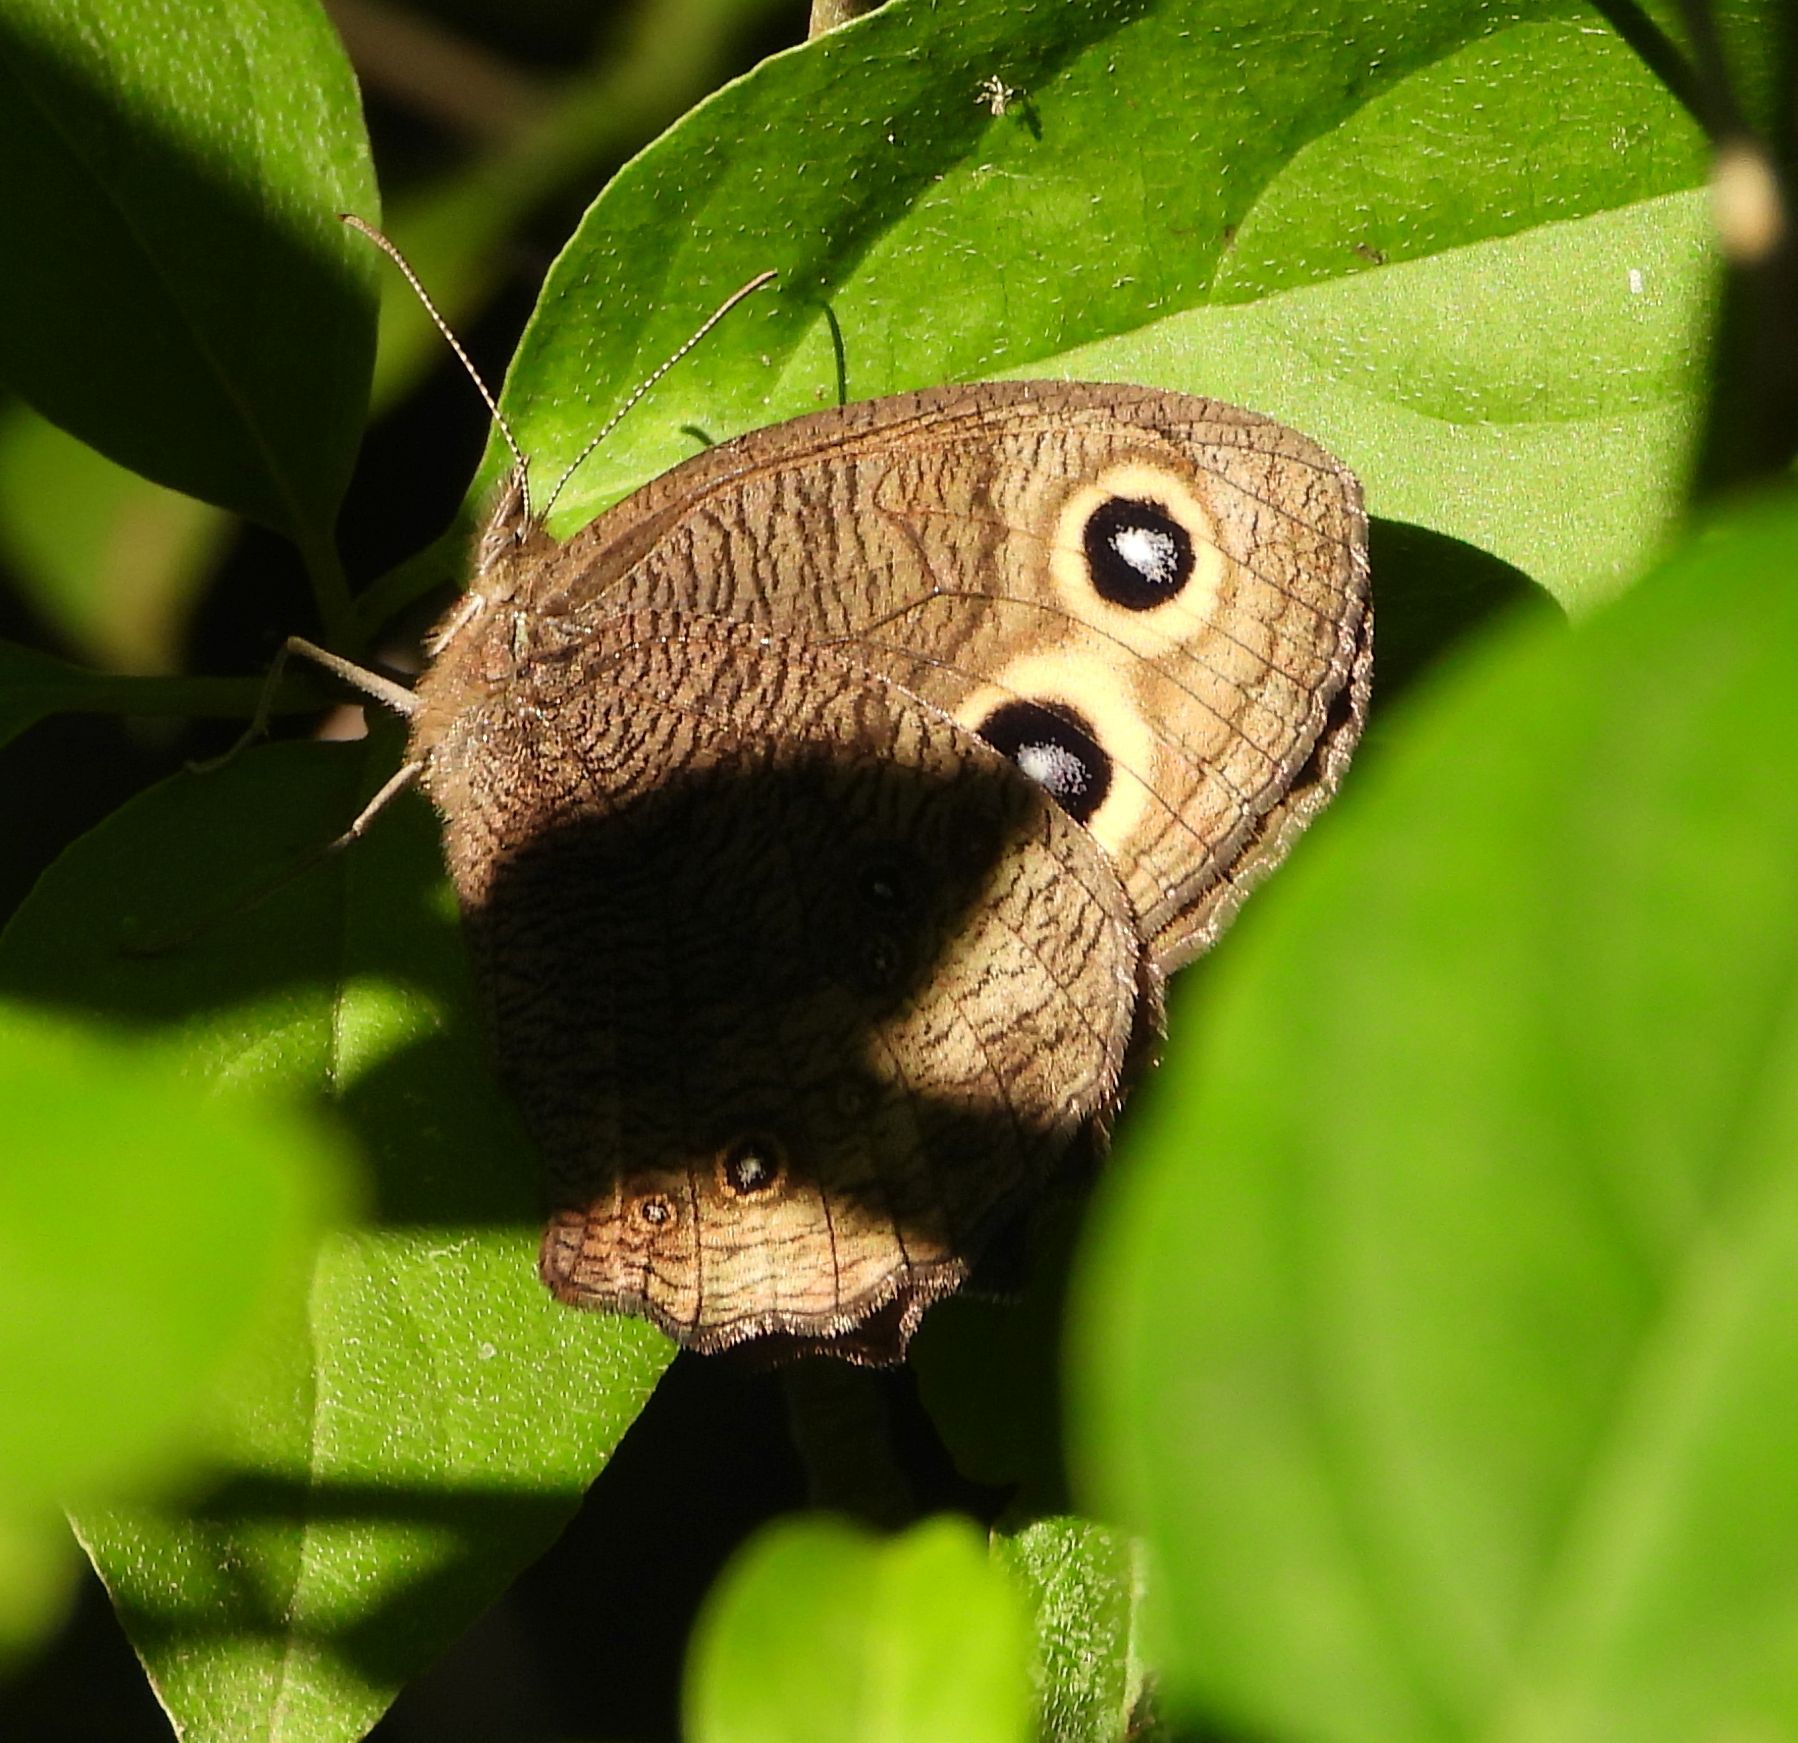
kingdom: Animalia
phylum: Arthropoda
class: Insecta
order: Lepidoptera
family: Nymphalidae
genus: Cercyonis
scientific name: Cercyonis pegala
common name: Common wood-nymph
